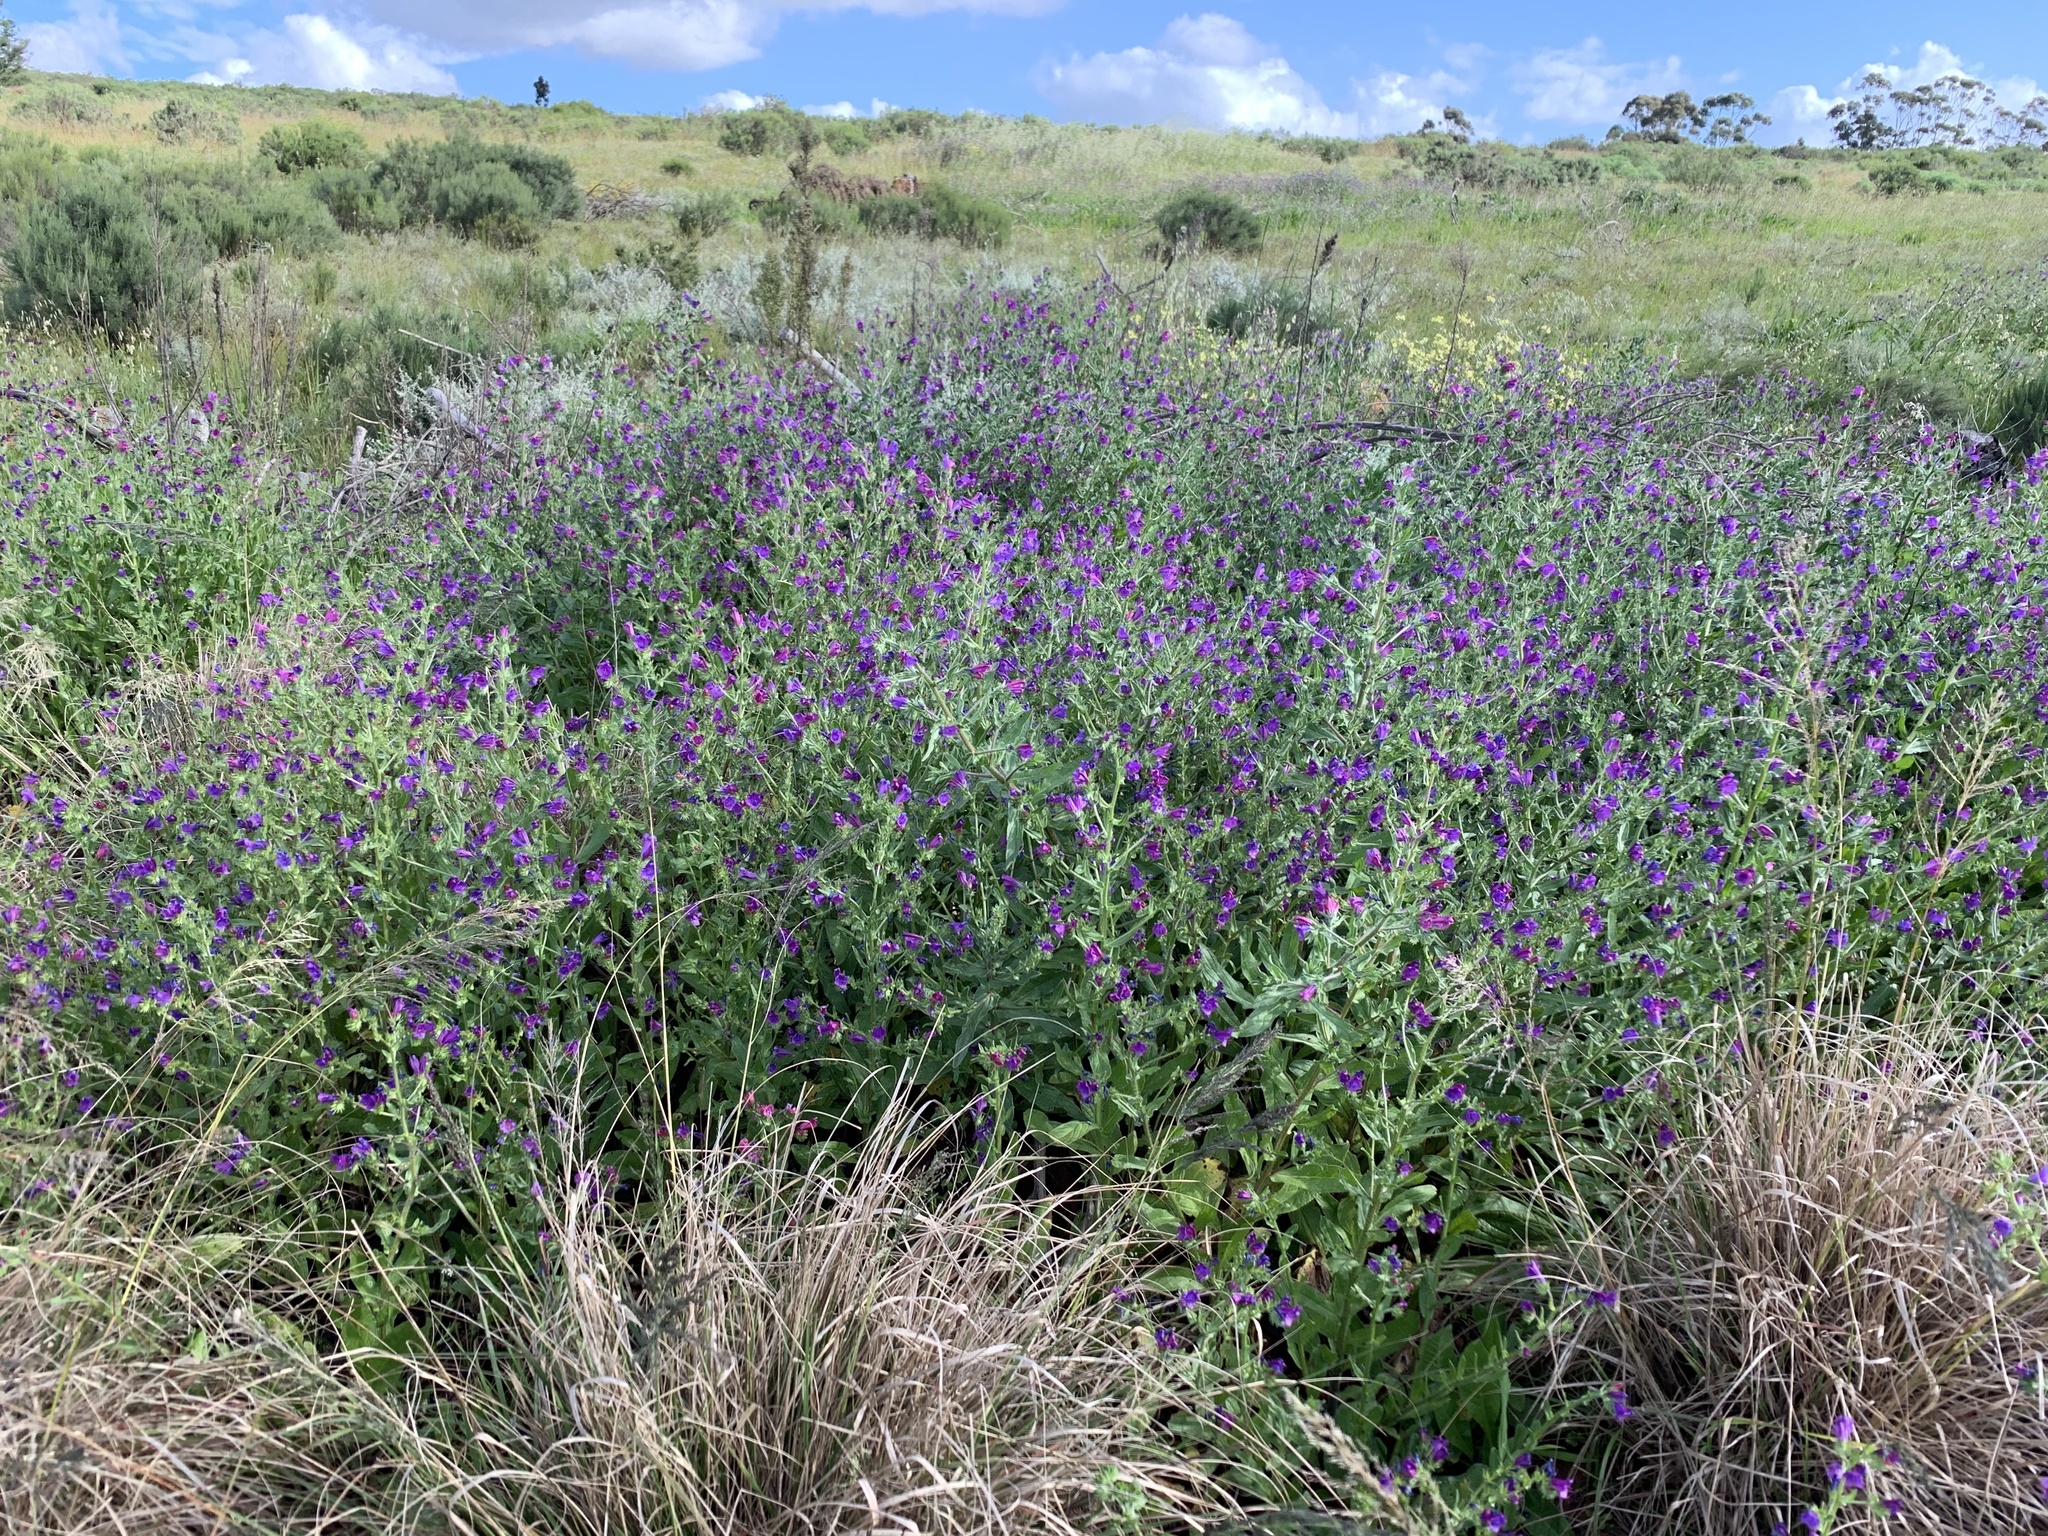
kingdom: Plantae
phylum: Tracheophyta
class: Magnoliopsida
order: Boraginales
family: Boraginaceae
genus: Echium
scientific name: Echium plantagineum
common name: Purple viper's-bugloss
